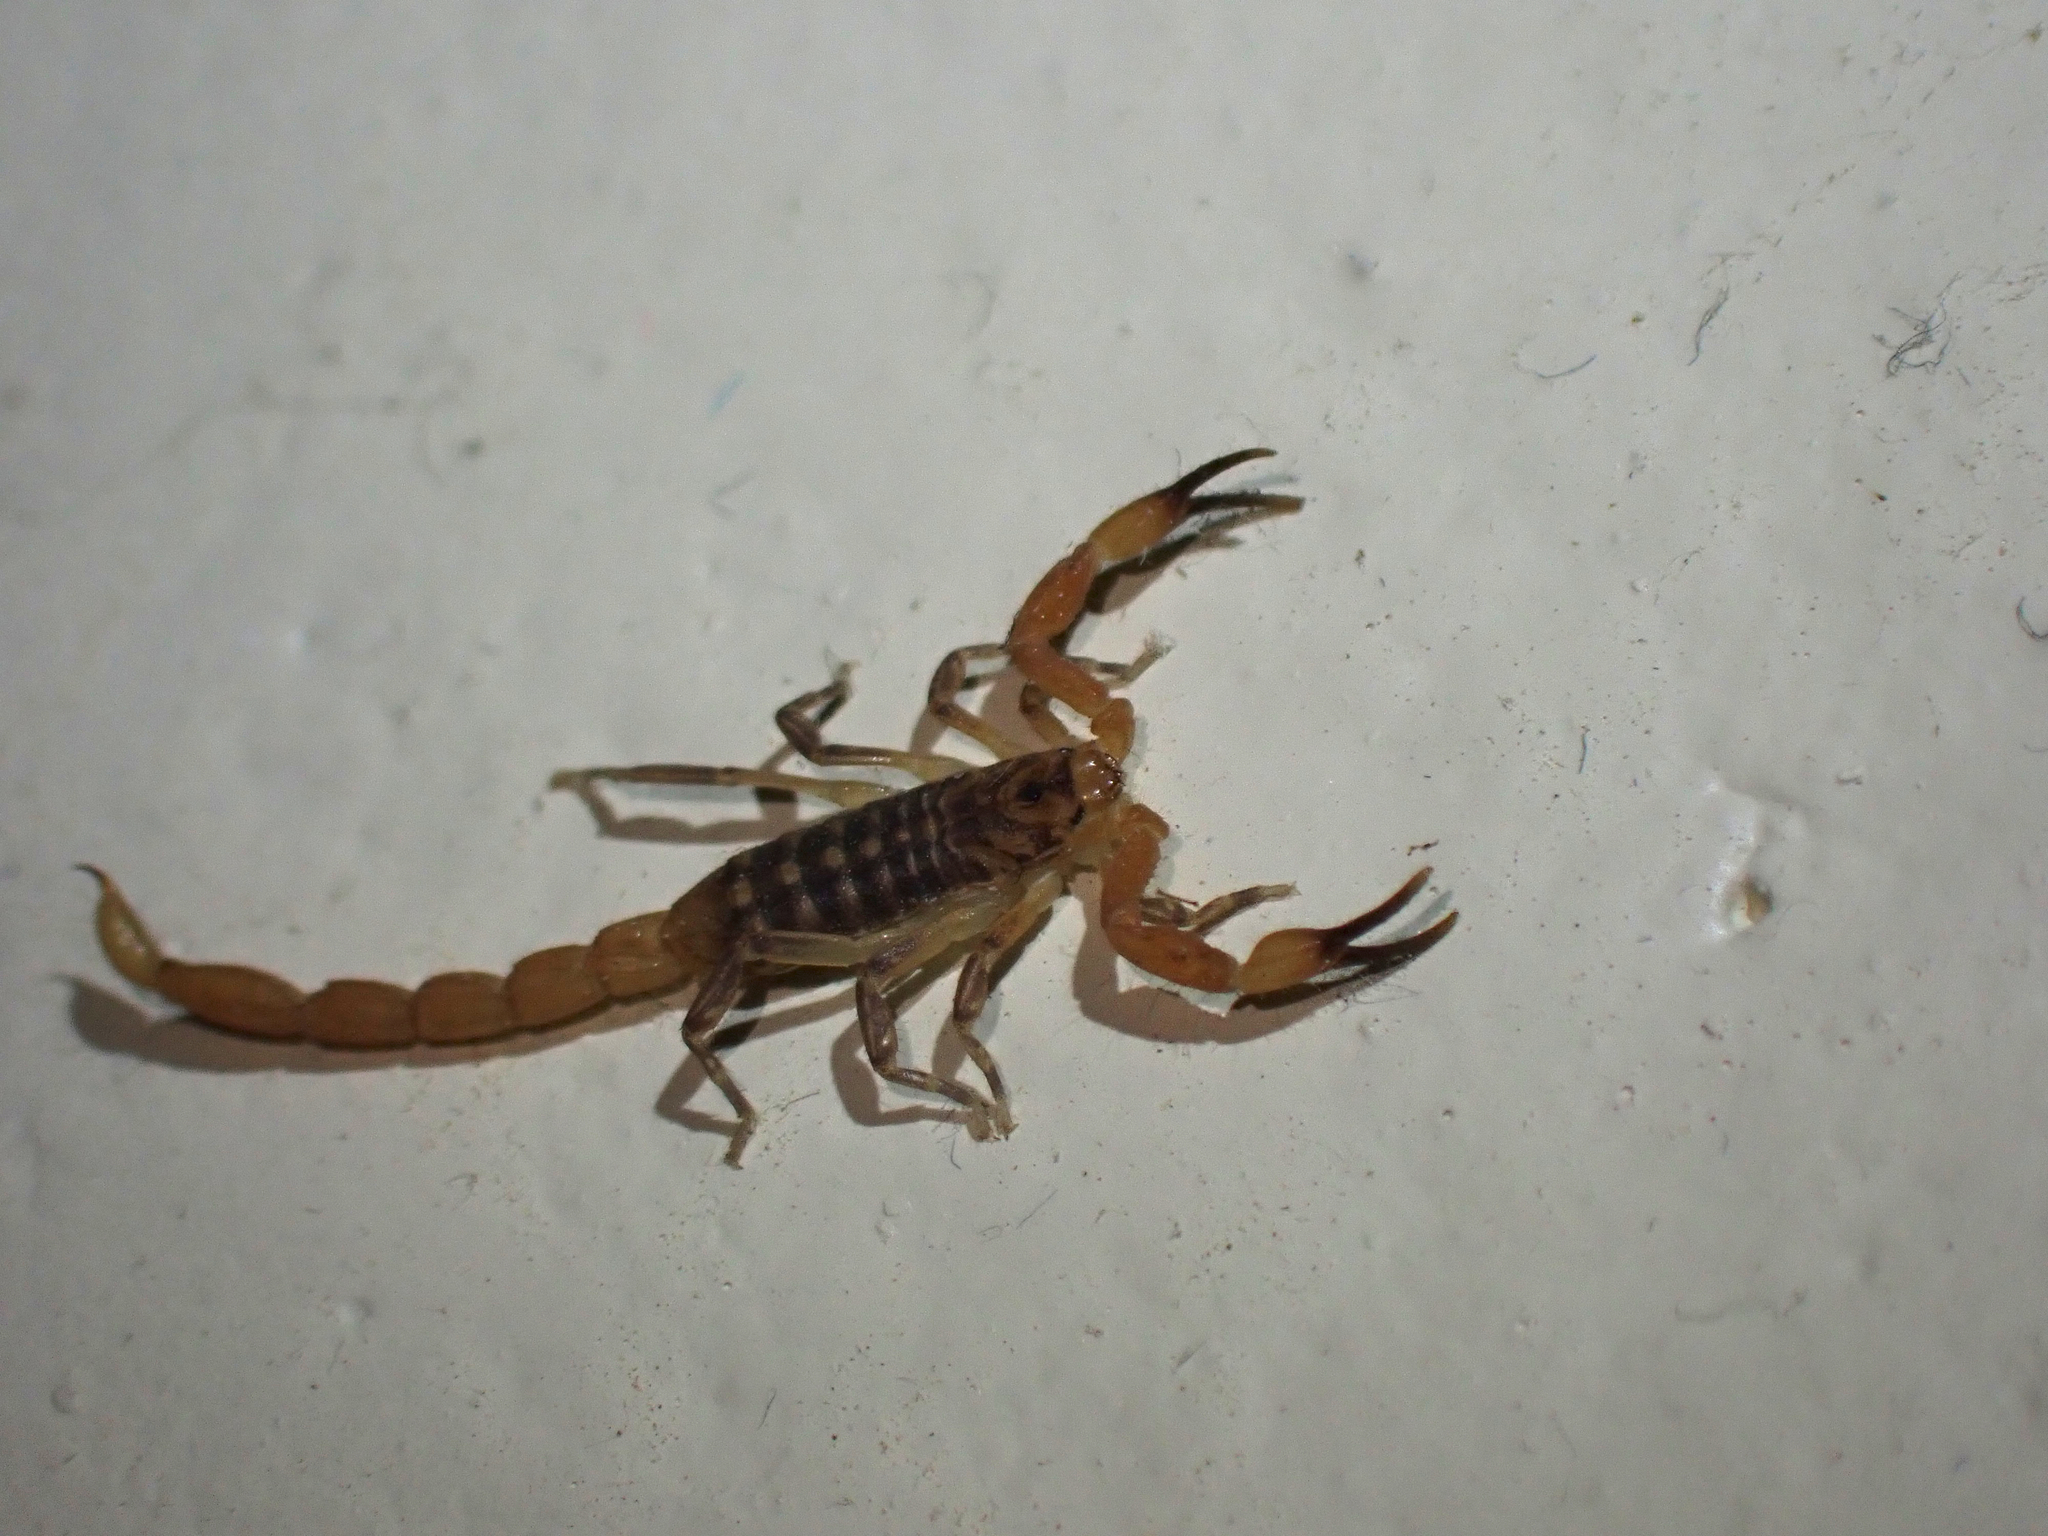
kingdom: Animalia
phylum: Arthropoda
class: Arachnida
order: Scorpiones
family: Buthidae
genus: Pseudolychas
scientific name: Pseudolychas ochraceus
